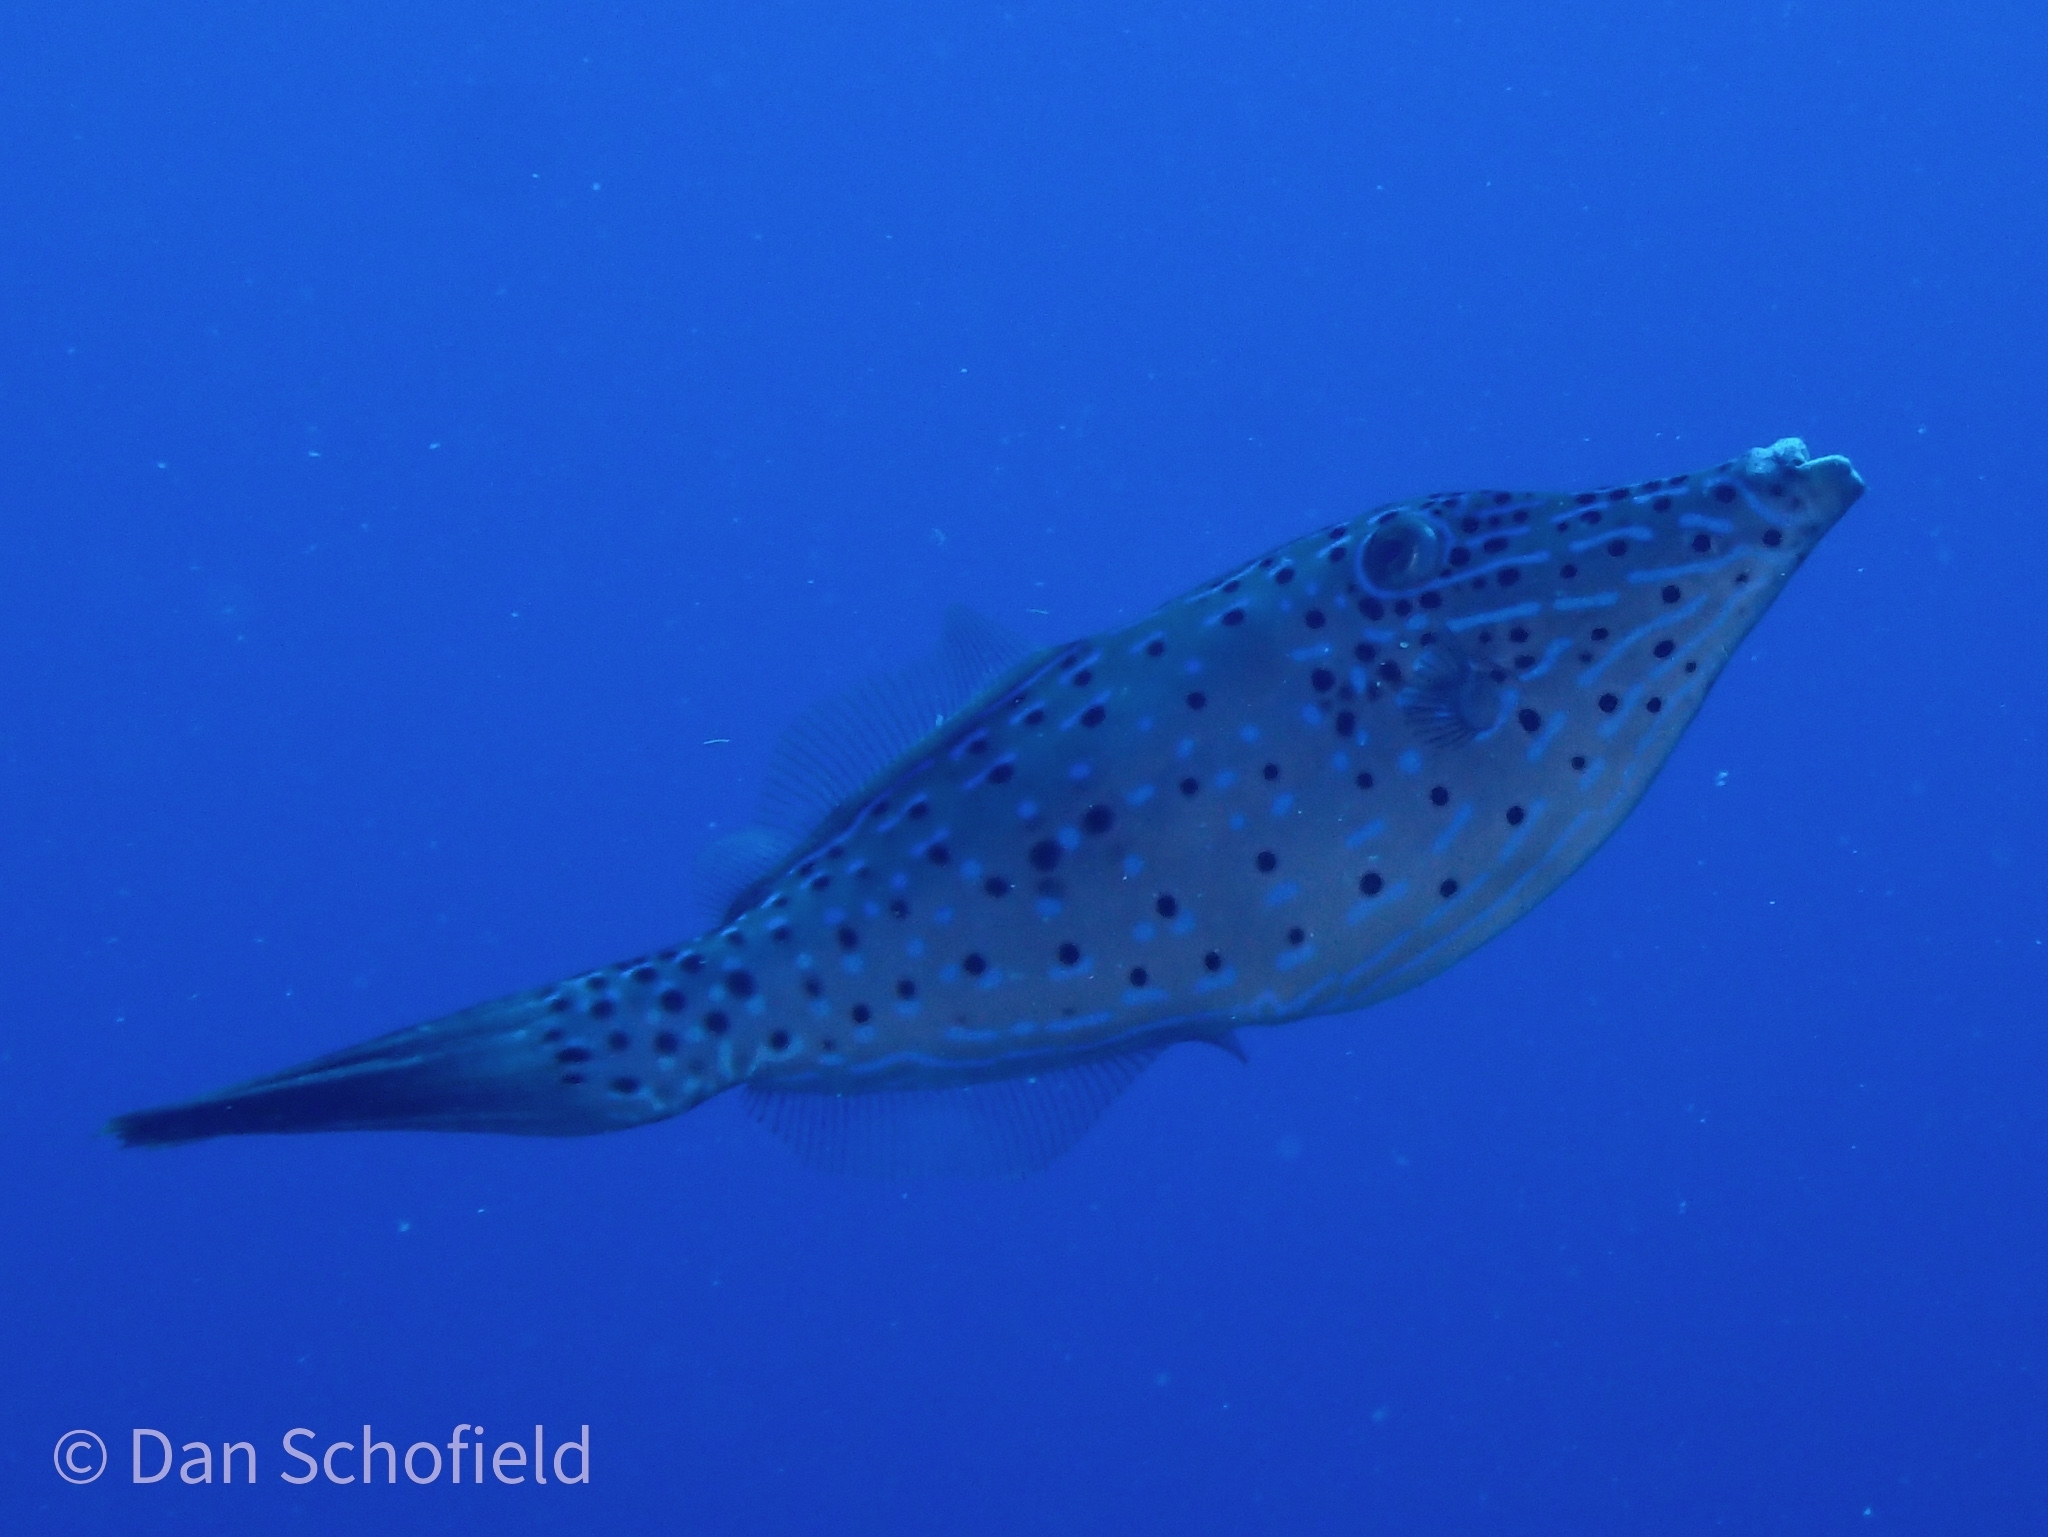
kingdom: Animalia
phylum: Chordata
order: Tetraodontiformes
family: Monacanthidae
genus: Aluterus
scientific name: Aluterus scriptus
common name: Scribbled leatherjacket filefish
